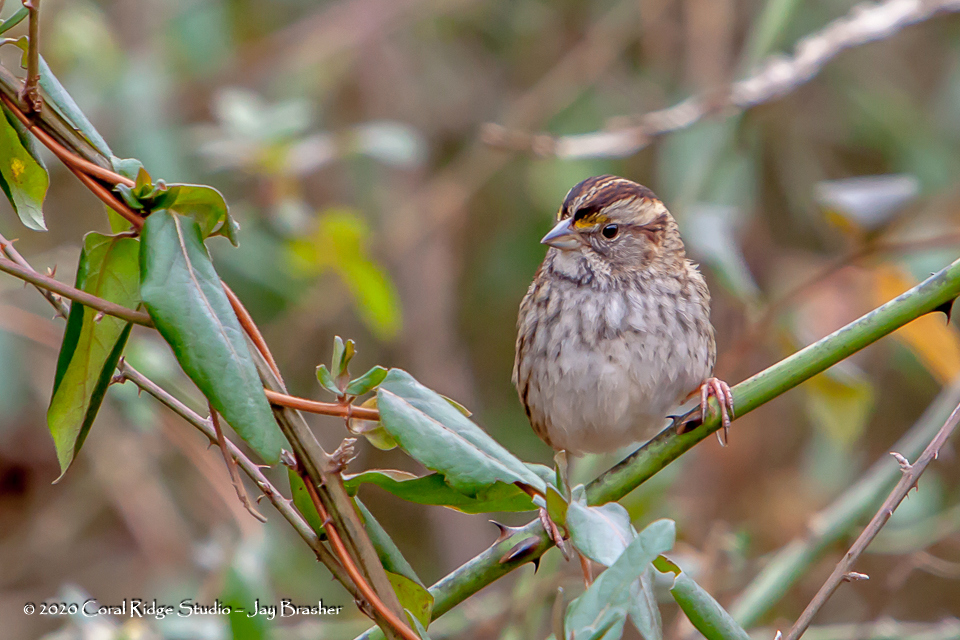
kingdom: Animalia
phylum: Chordata
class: Aves
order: Passeriformes
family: Passerellidae
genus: Zonotrichia
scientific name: Zonotrichia albicollis
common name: White-throated sparrow
